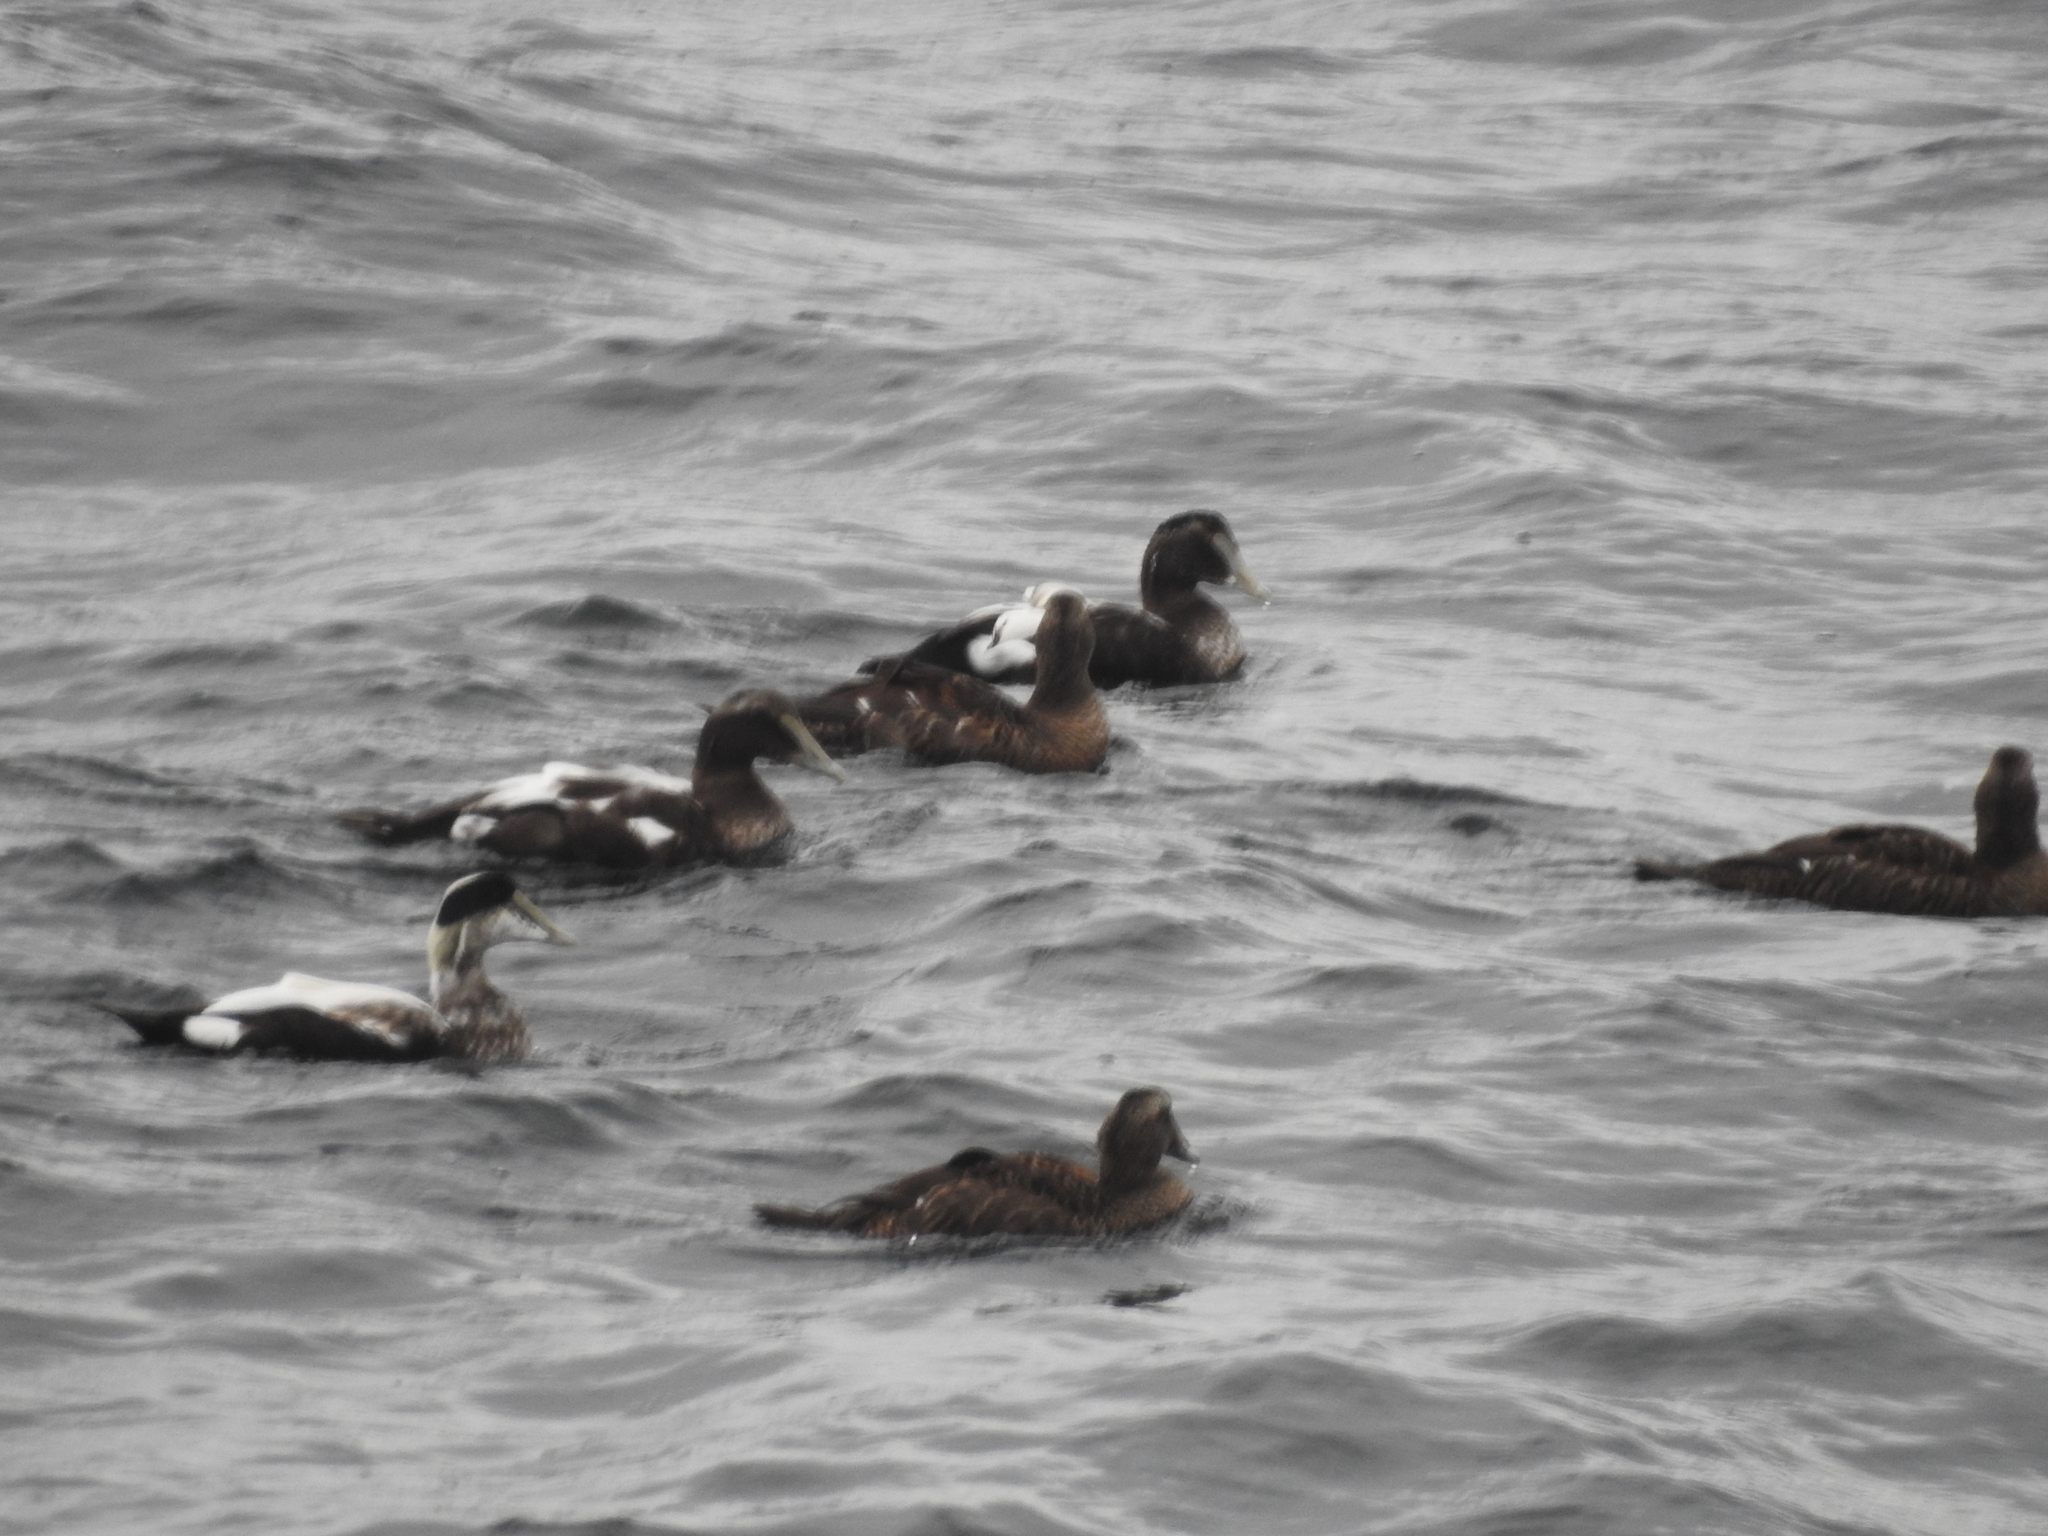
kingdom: Animalia
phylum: Chordata
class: Aves
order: Anseriformes
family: Anatidae
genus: Somateria
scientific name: Somateria mollissima
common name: Common eider
